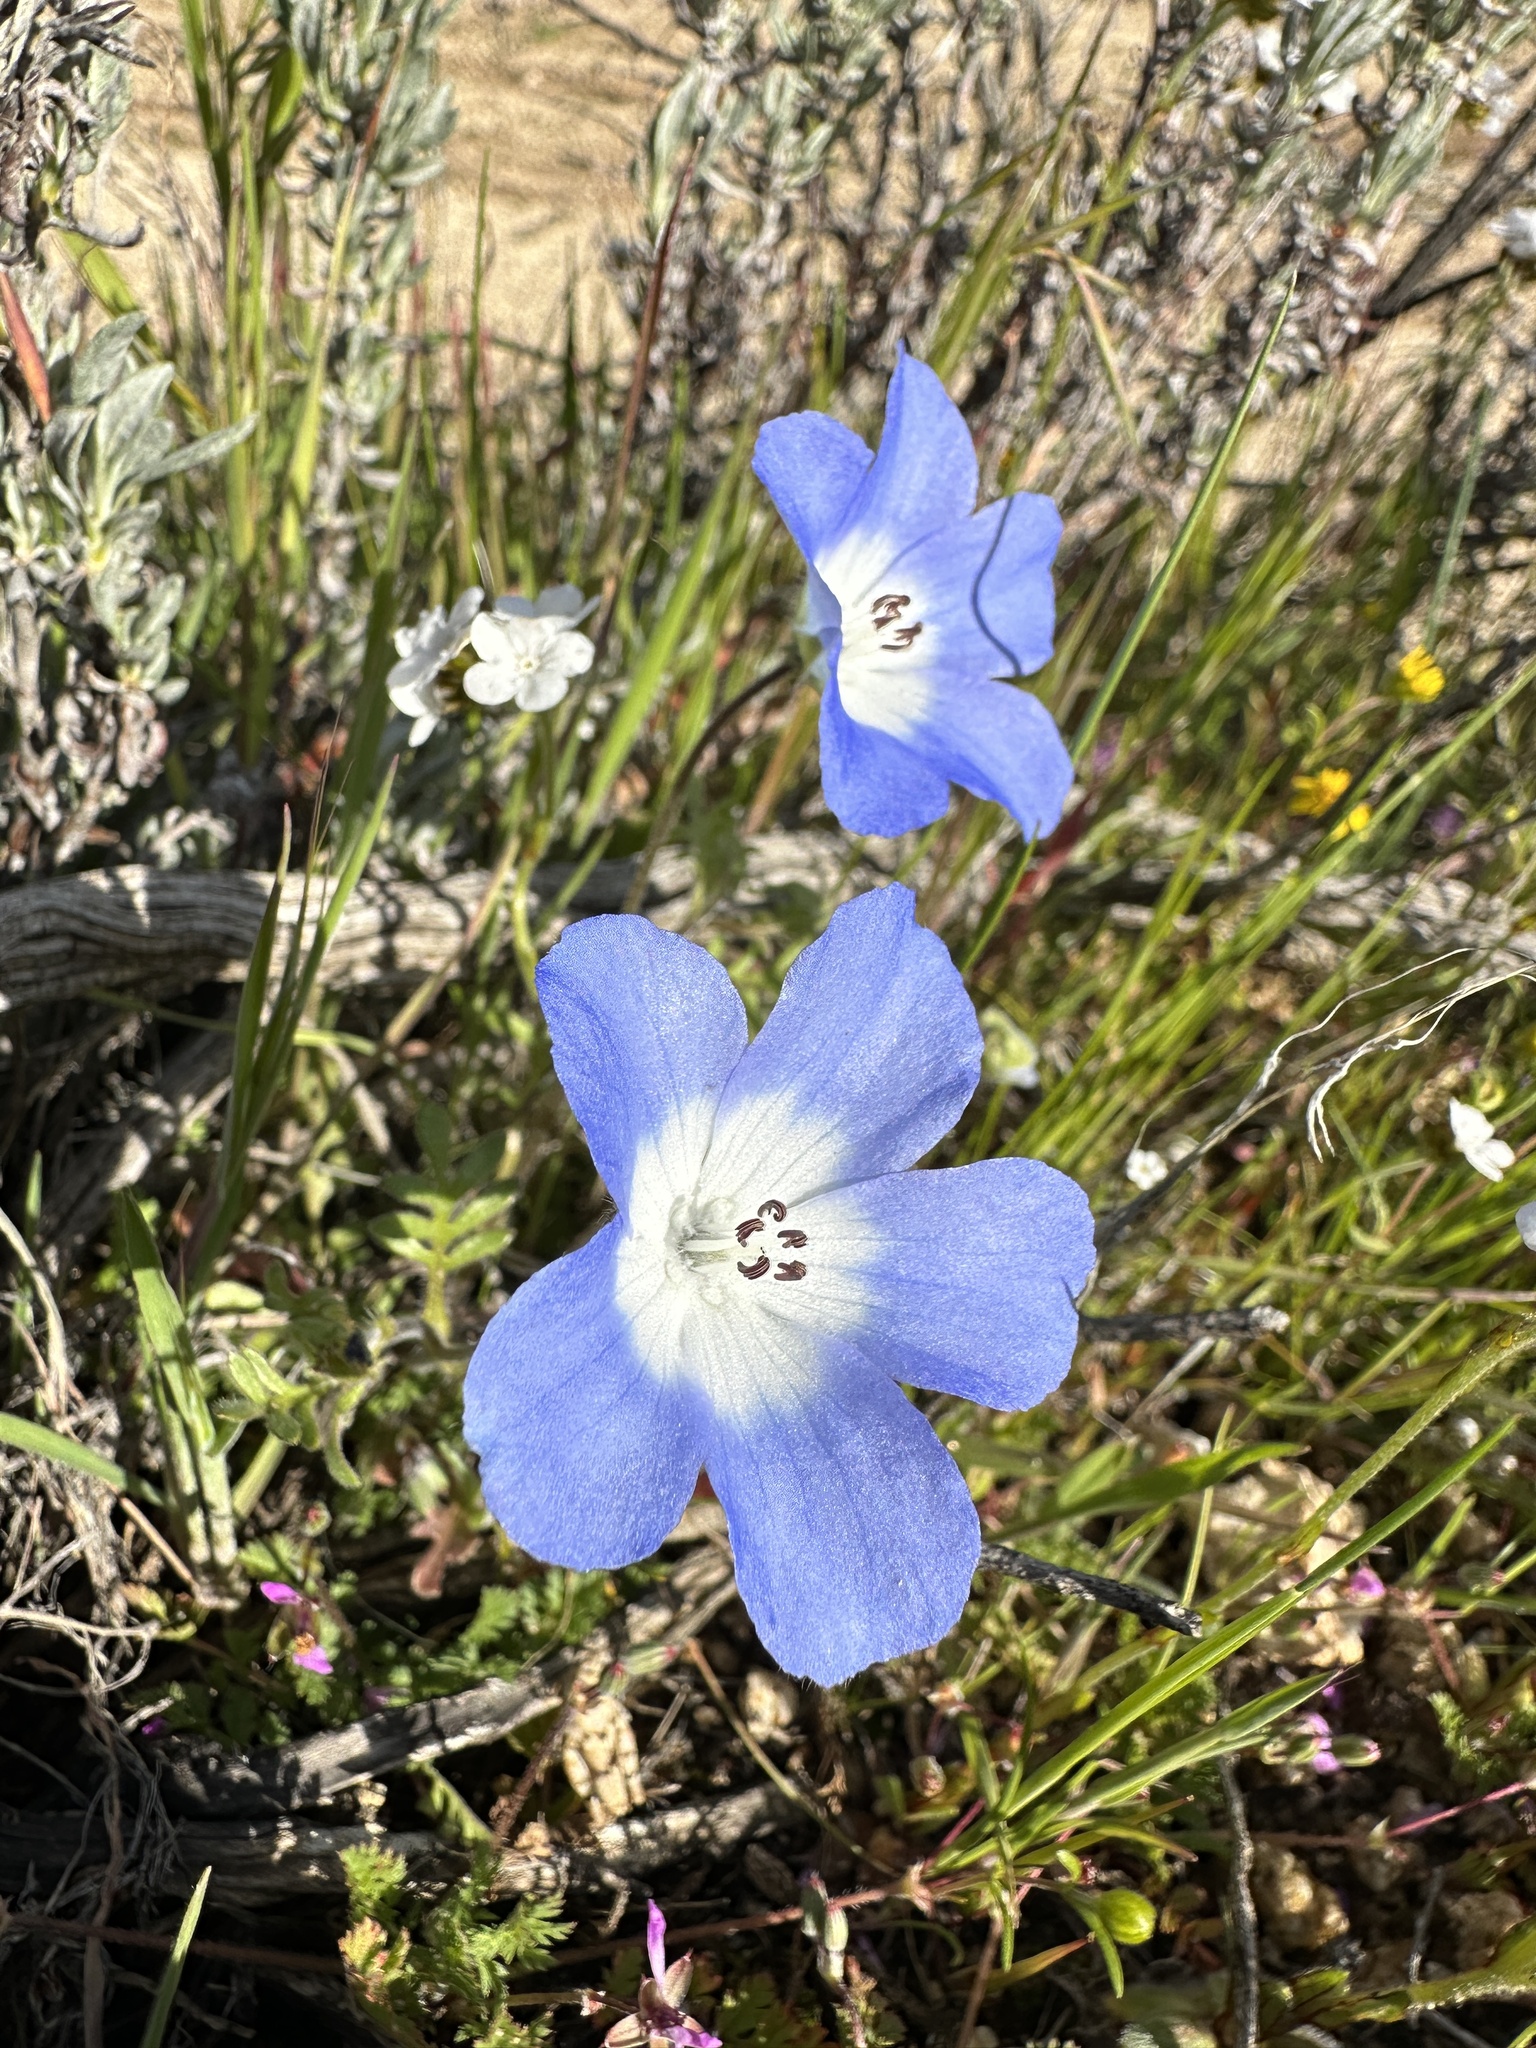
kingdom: Plantae
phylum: Tracheophyta
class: Magnoliopsida
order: Boraginales
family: Hydrophyllaceae
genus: Nemophila
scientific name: Nemophila menziesii
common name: Baby's-blue-eyes
